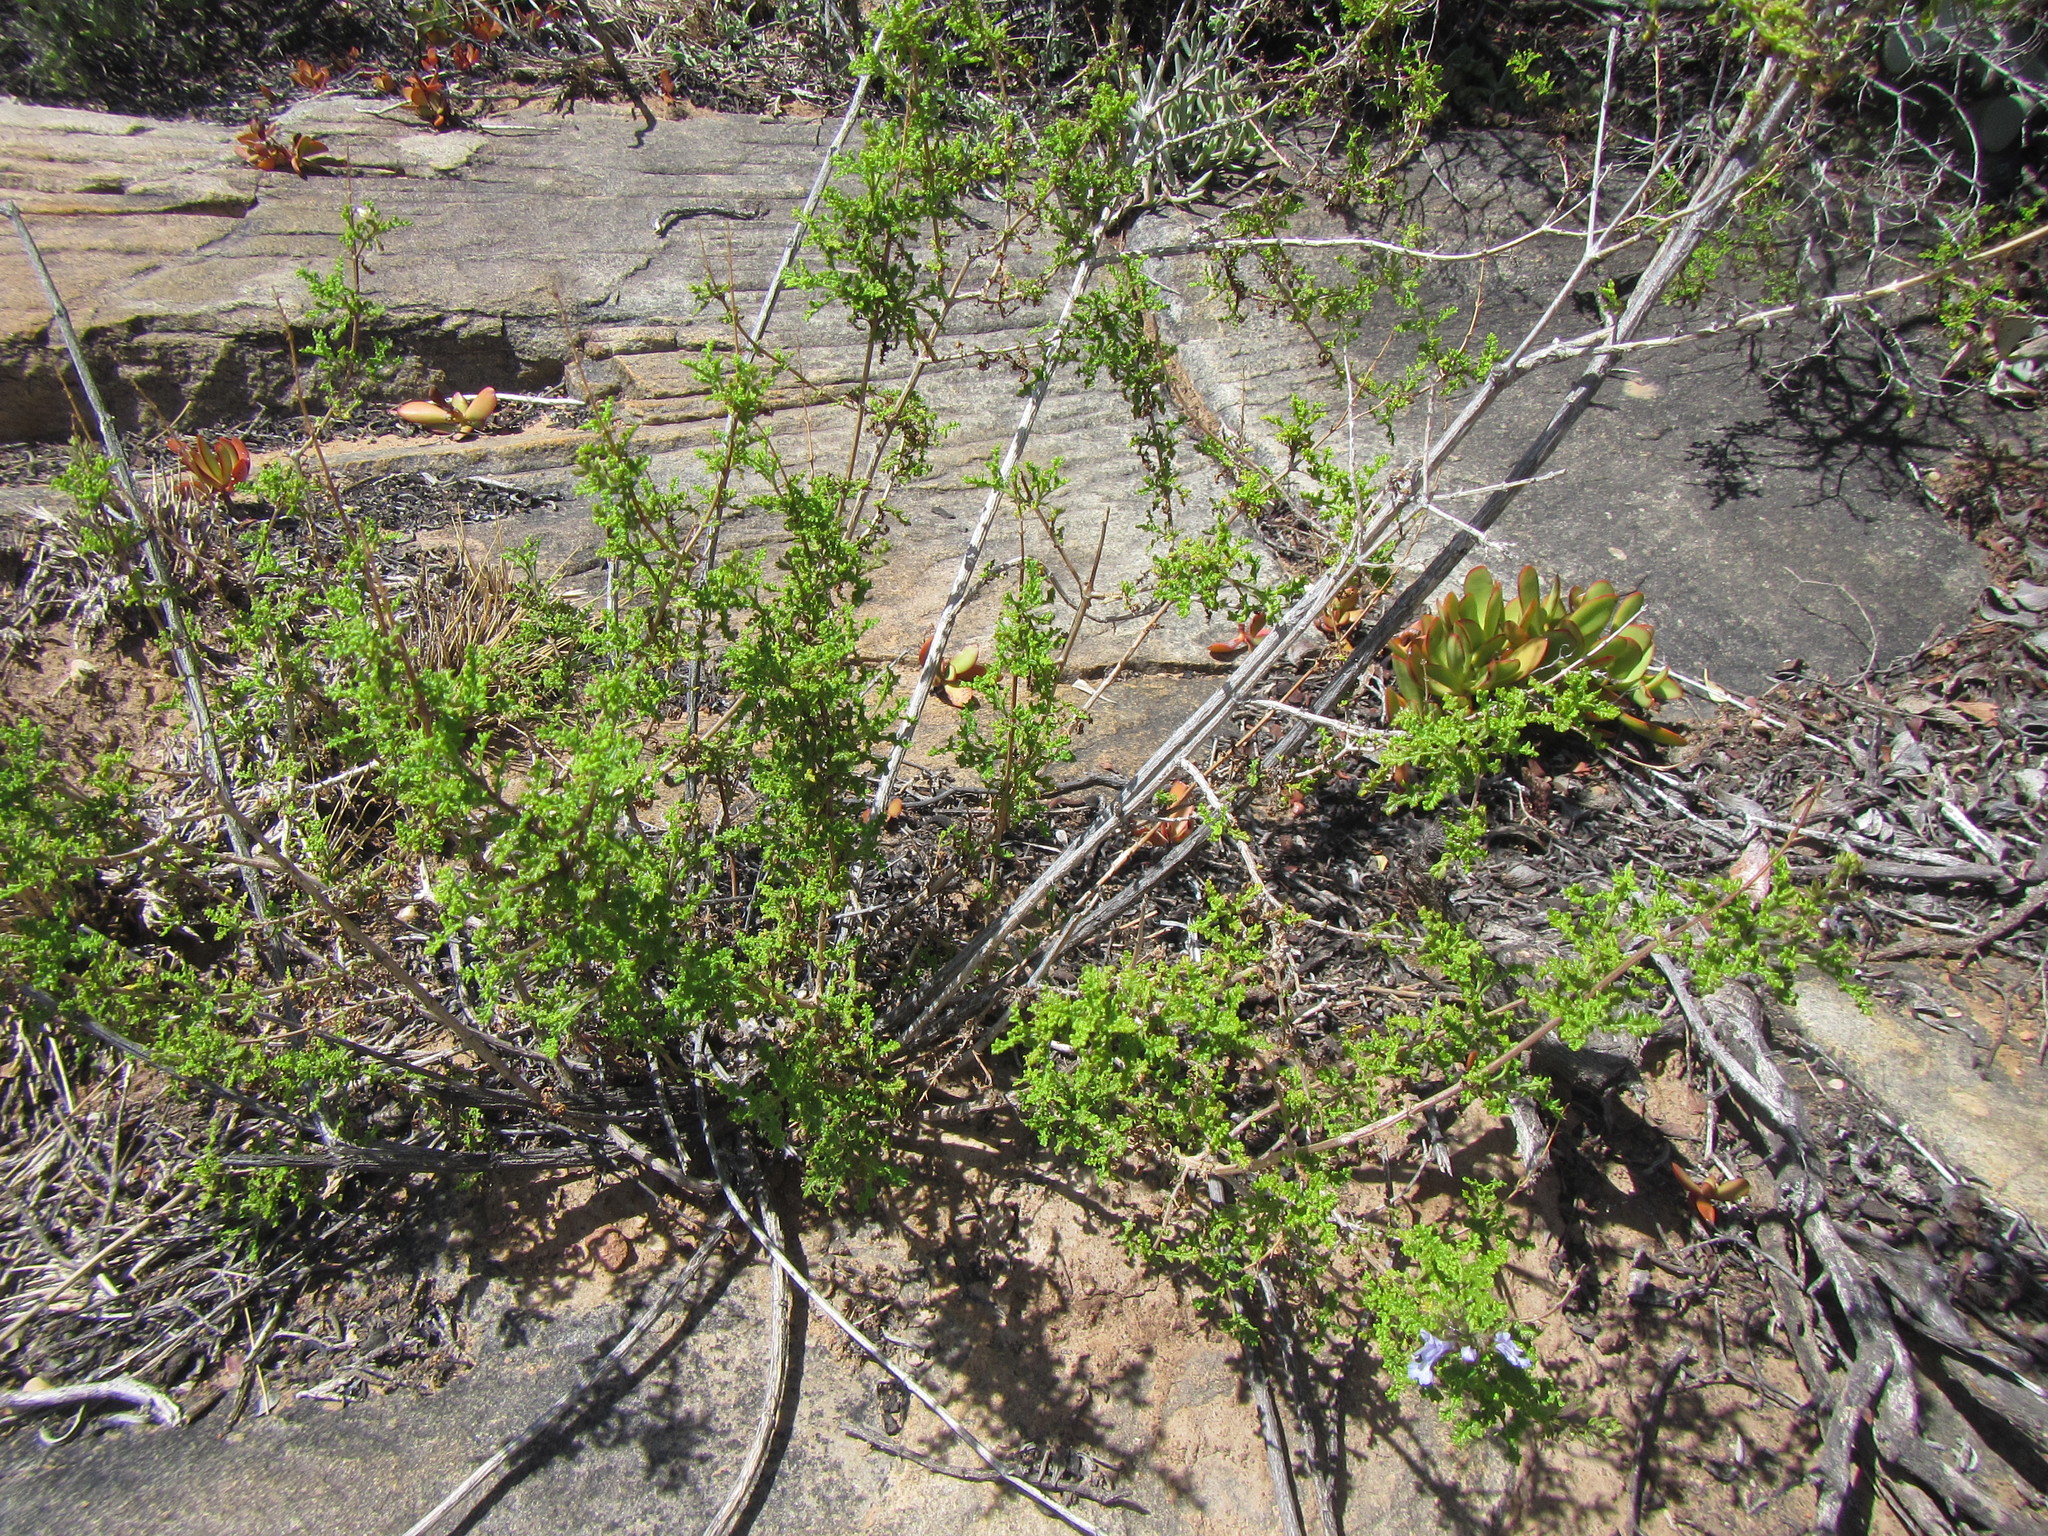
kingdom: Plantae
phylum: Tracheophyta
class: Magnoliopsida
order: Lamiales
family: Lamiaceae
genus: Salvia
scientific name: Salvia namaensis
